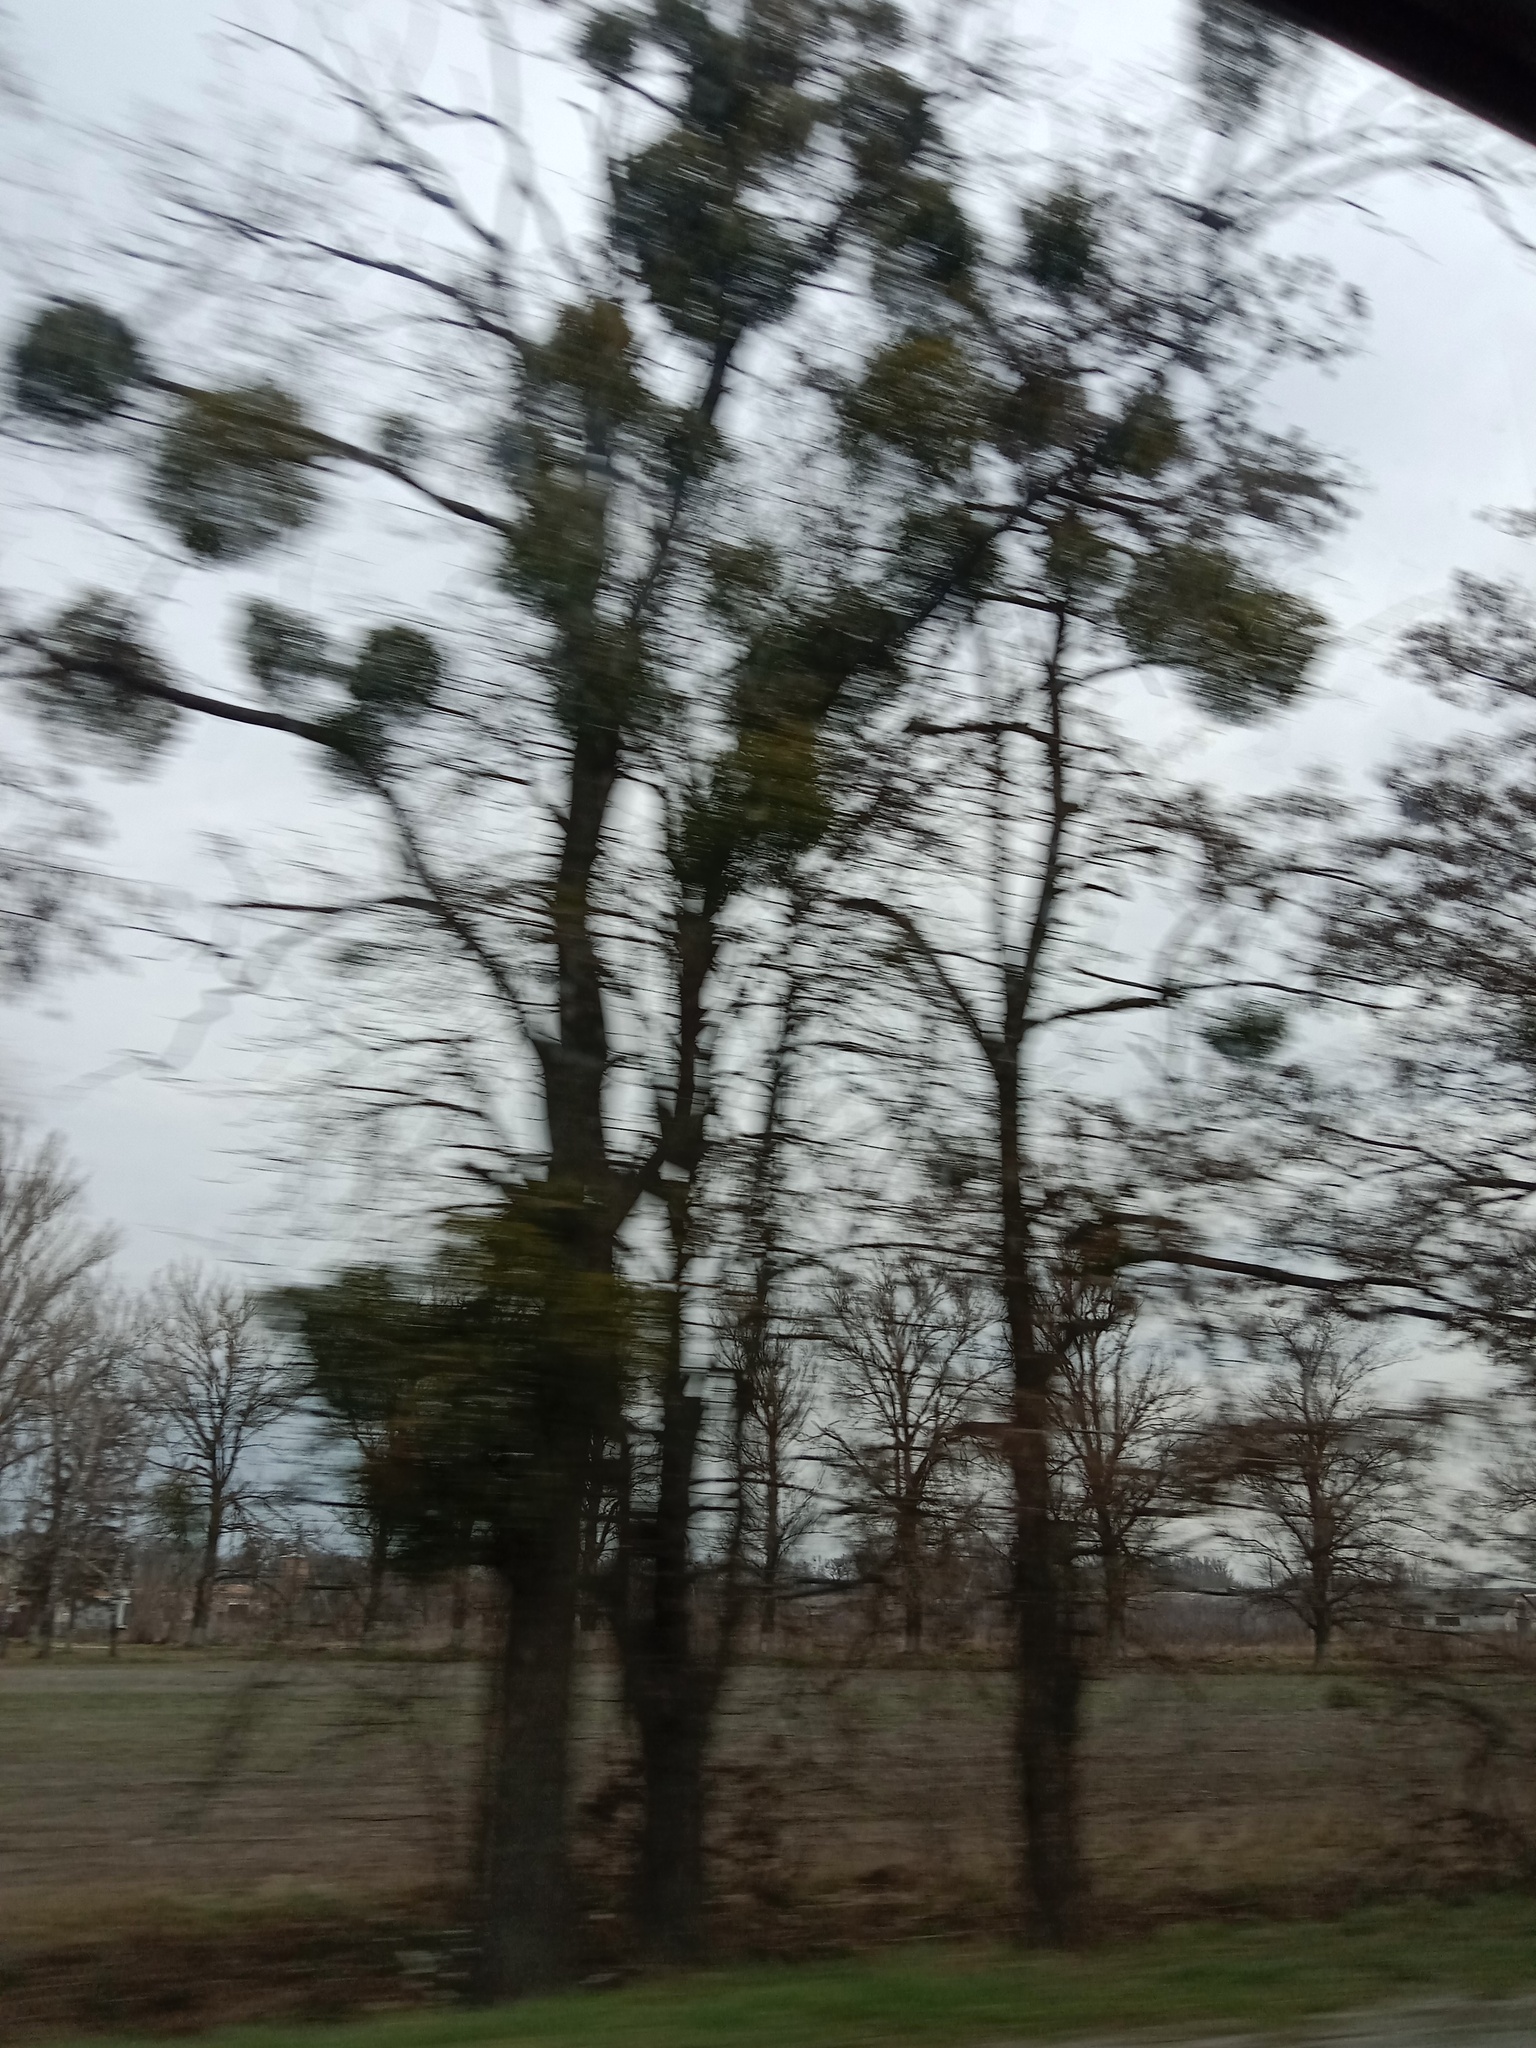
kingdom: Plantae
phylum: Tracheophyta
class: Magnoliopsida
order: Santalales
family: Viscaceae
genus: Viscum
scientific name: Viscum album
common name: Mistletoe
